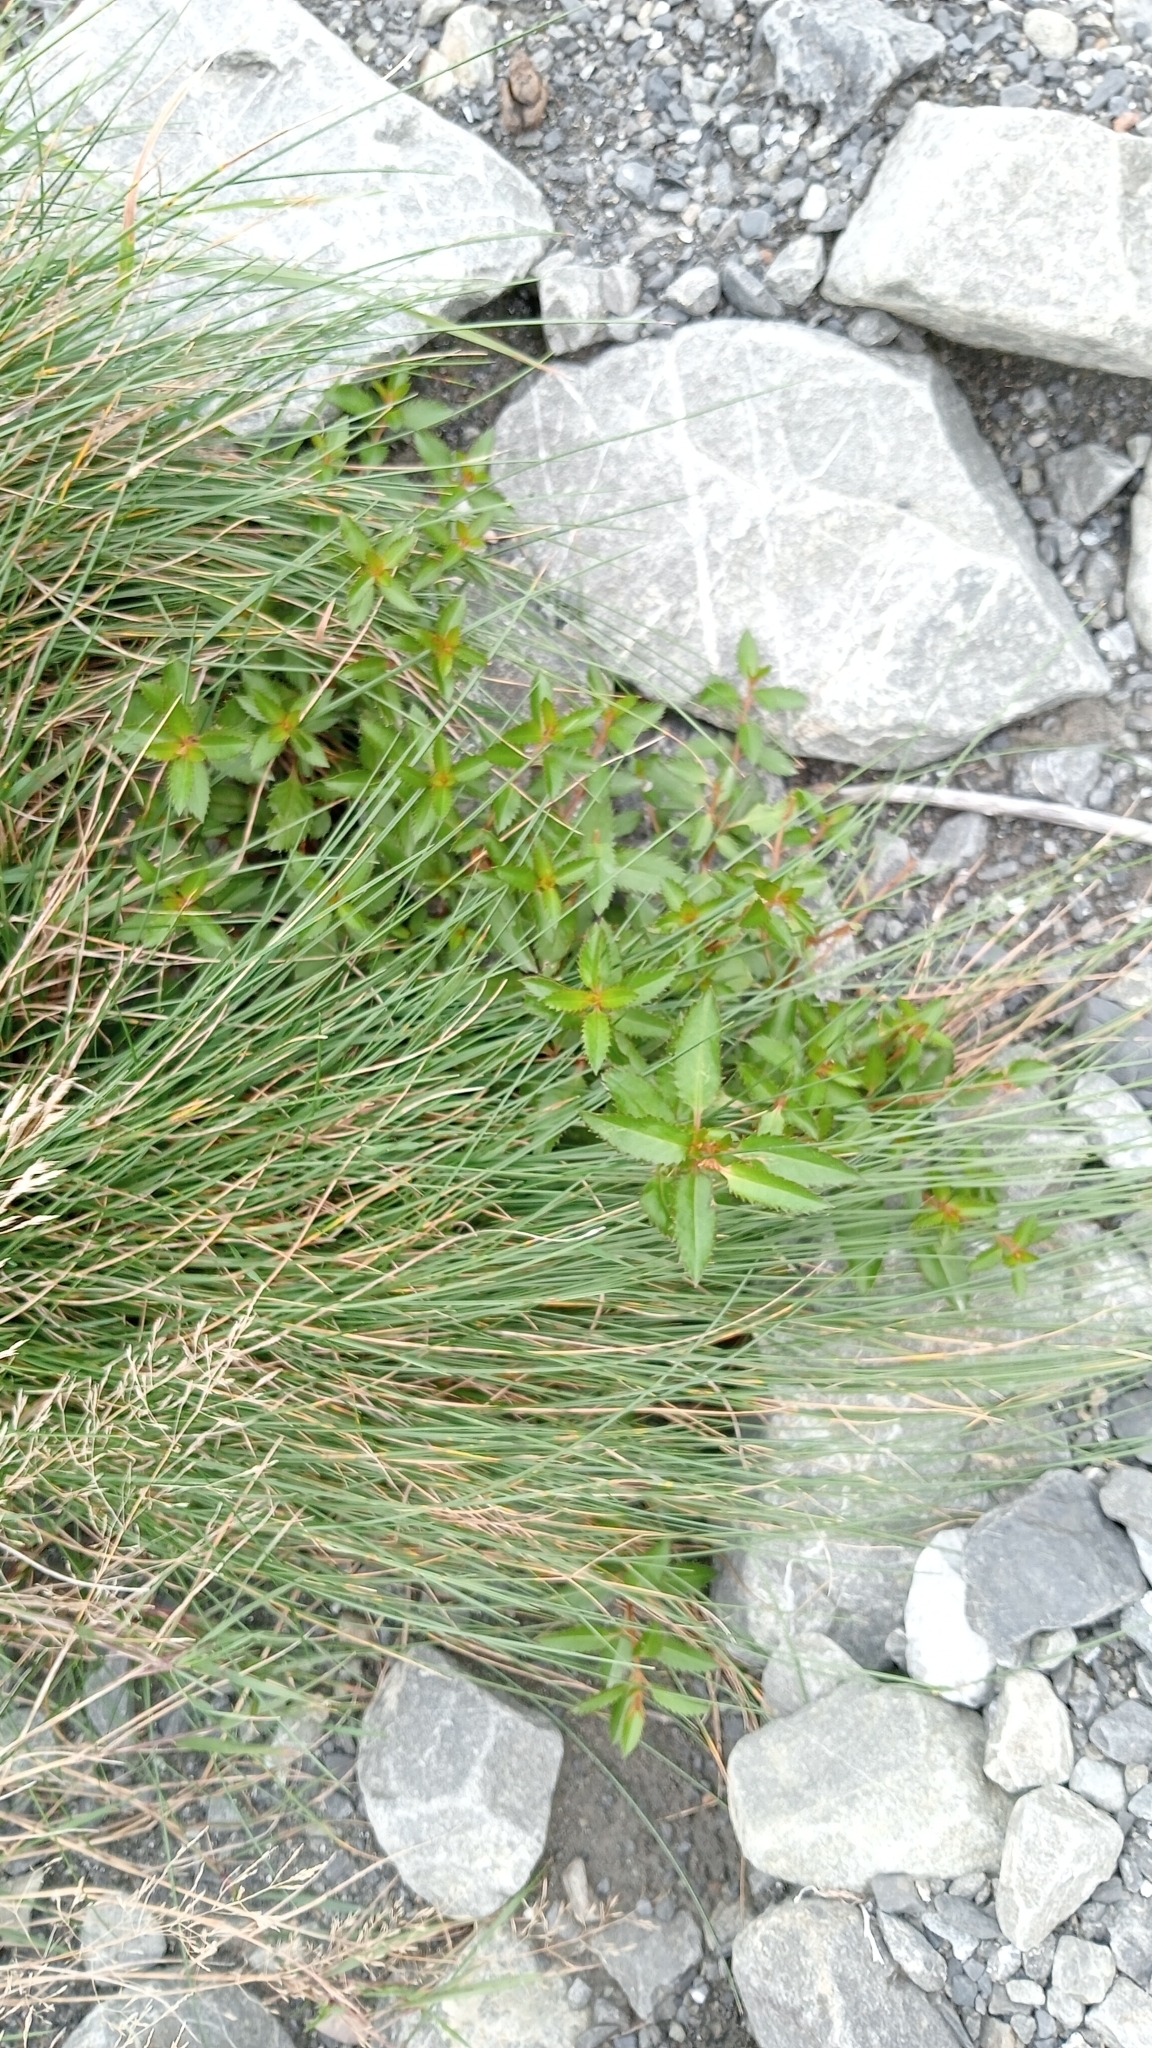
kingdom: Plantae
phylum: Tracheophyta
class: Magnoliopsida
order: Saxifragales
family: Haloragaceae
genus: Haloragis
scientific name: Haloragis erecta
